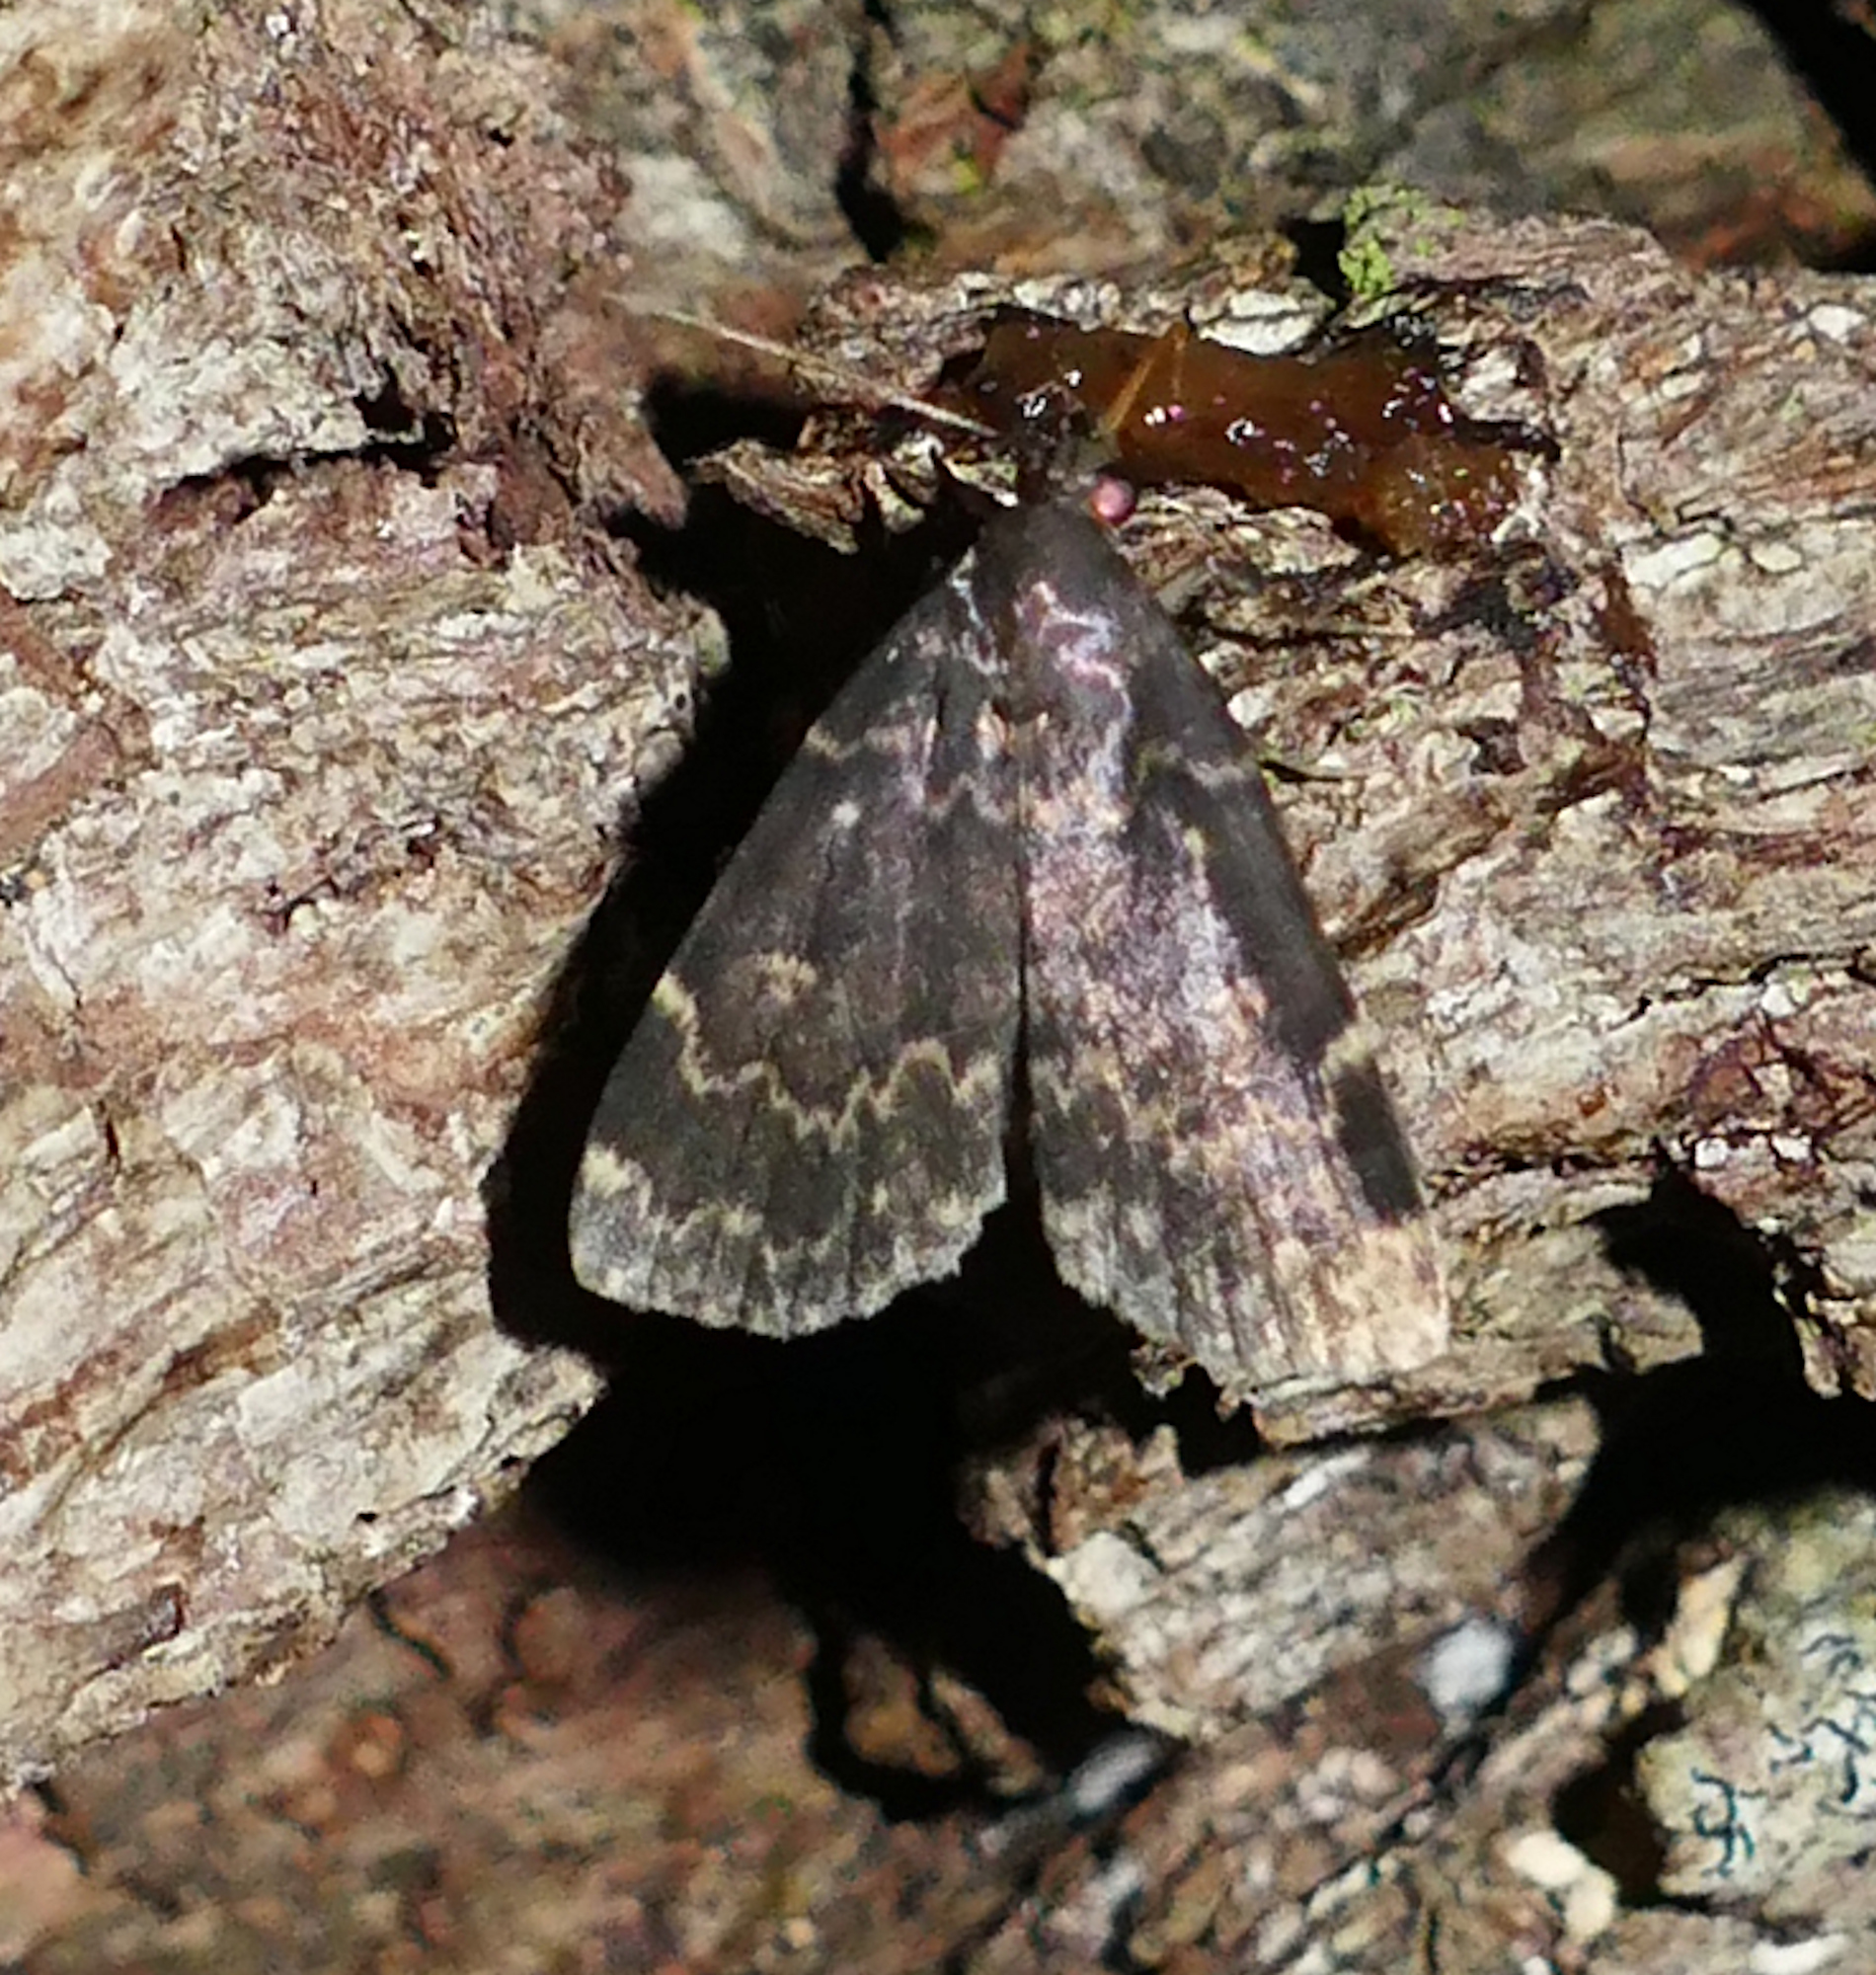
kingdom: Animalia
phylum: Arthropoda
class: Insecta
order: Lepidoptera
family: Erebidae
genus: Idia
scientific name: Idia lubricalis
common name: Twin-striped tabby
